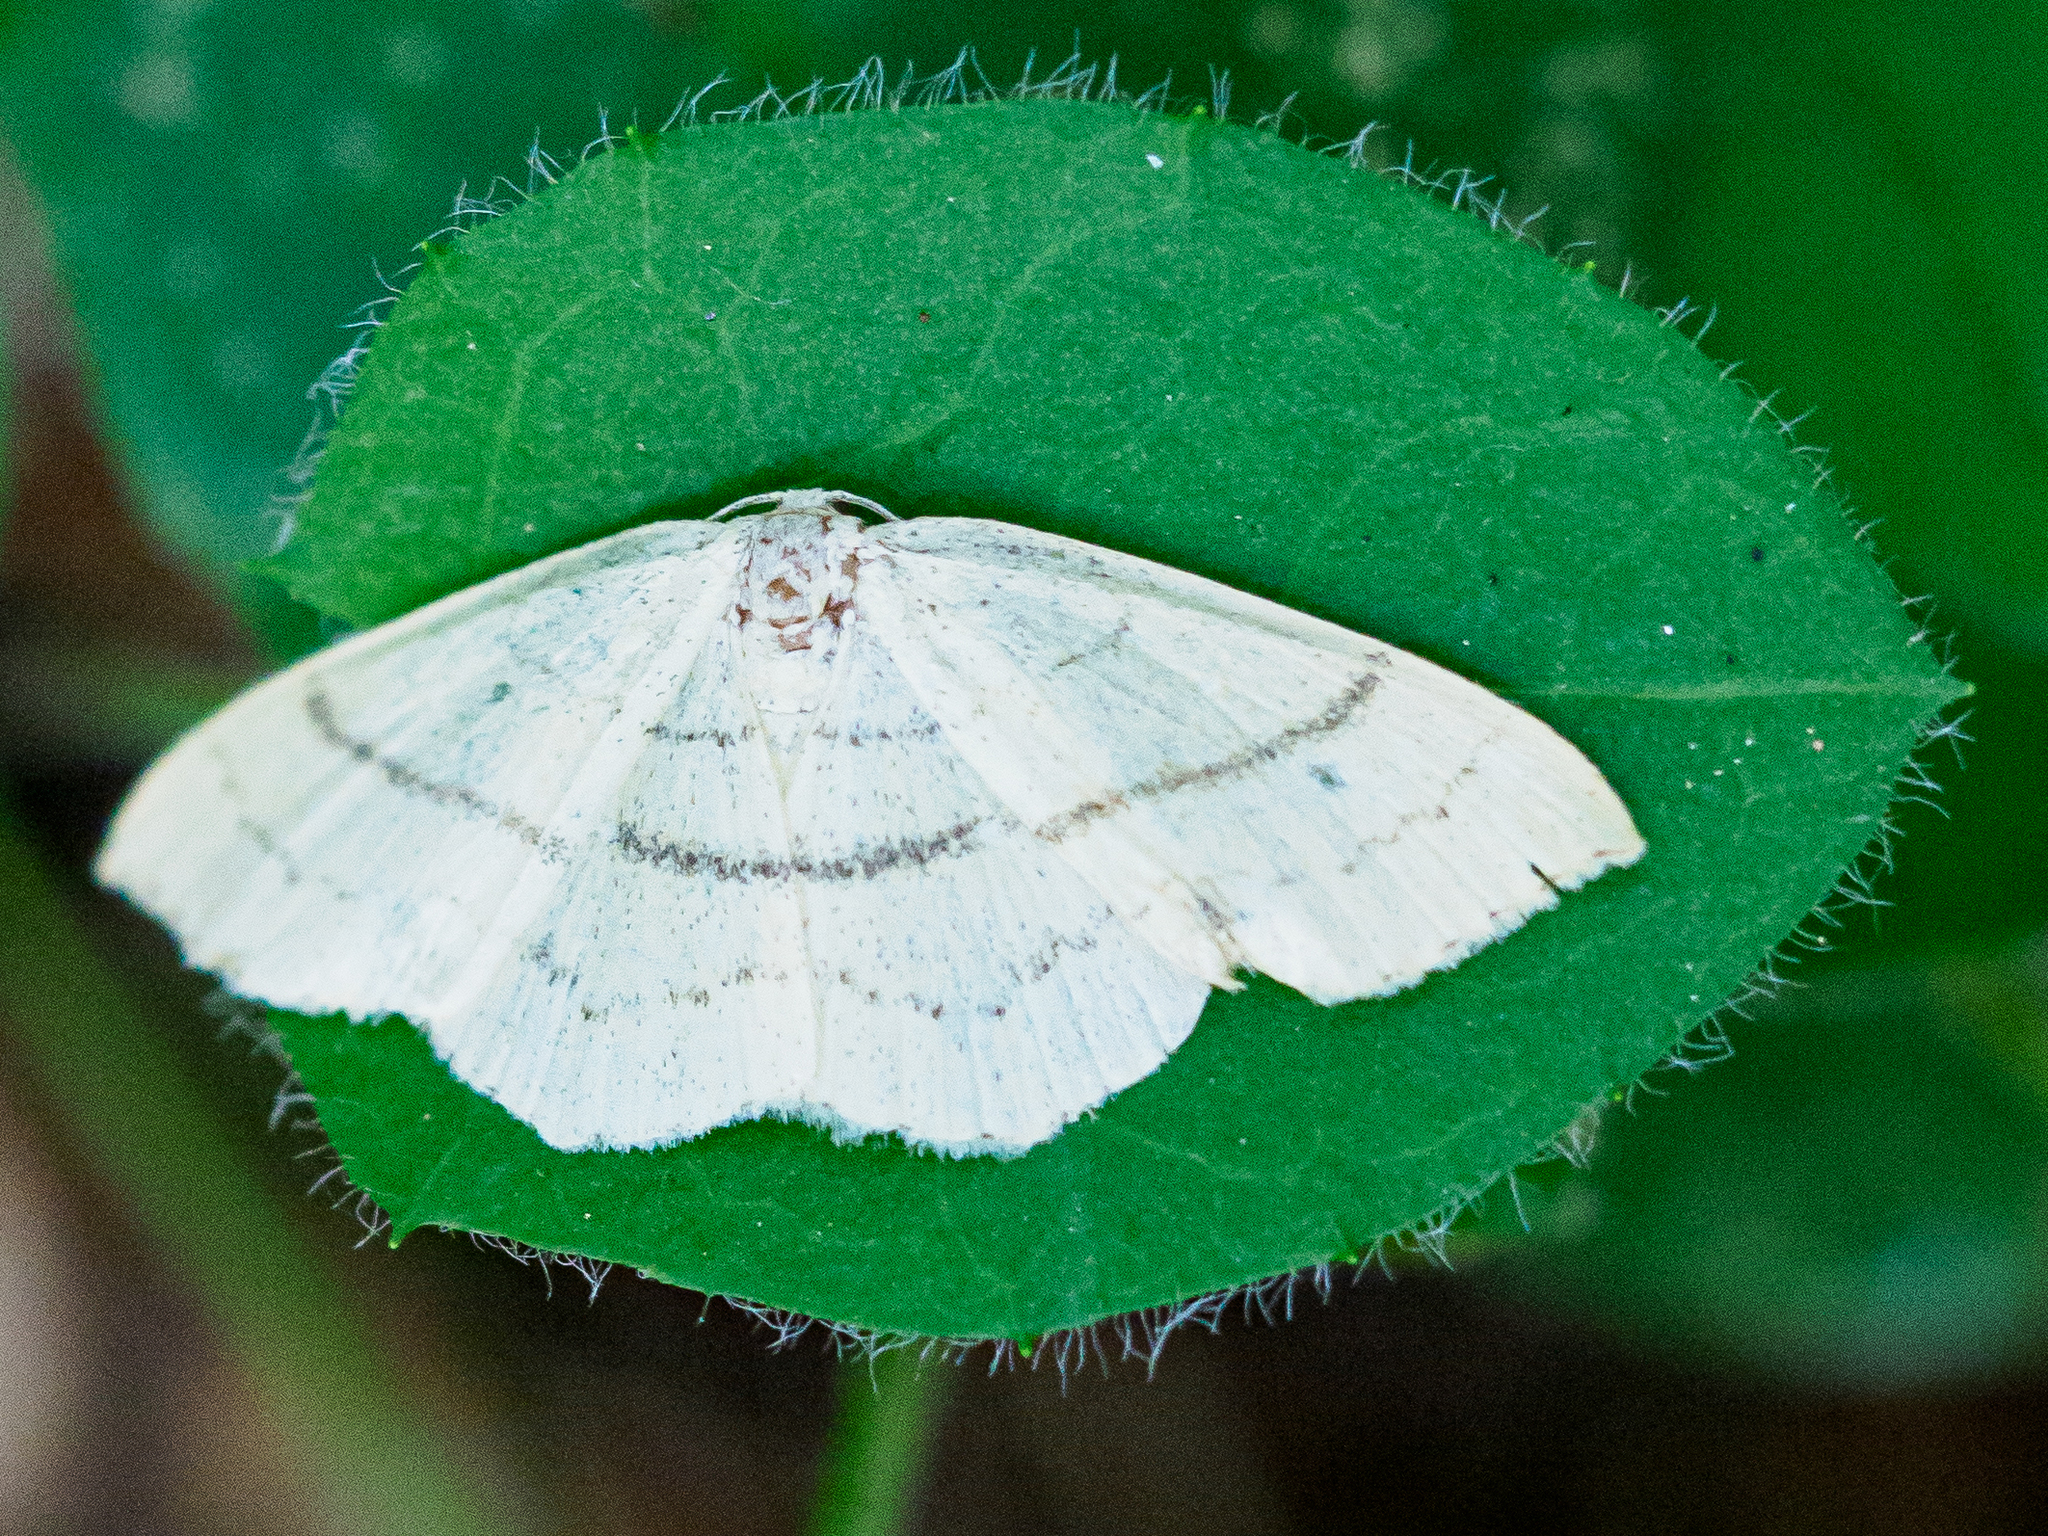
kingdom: Animalia
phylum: Arthropoda
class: Insecta
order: Lepidoptera
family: Geometridae
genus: Cyclophora
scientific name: Cyclophora linearia
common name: Clay triple-lines
